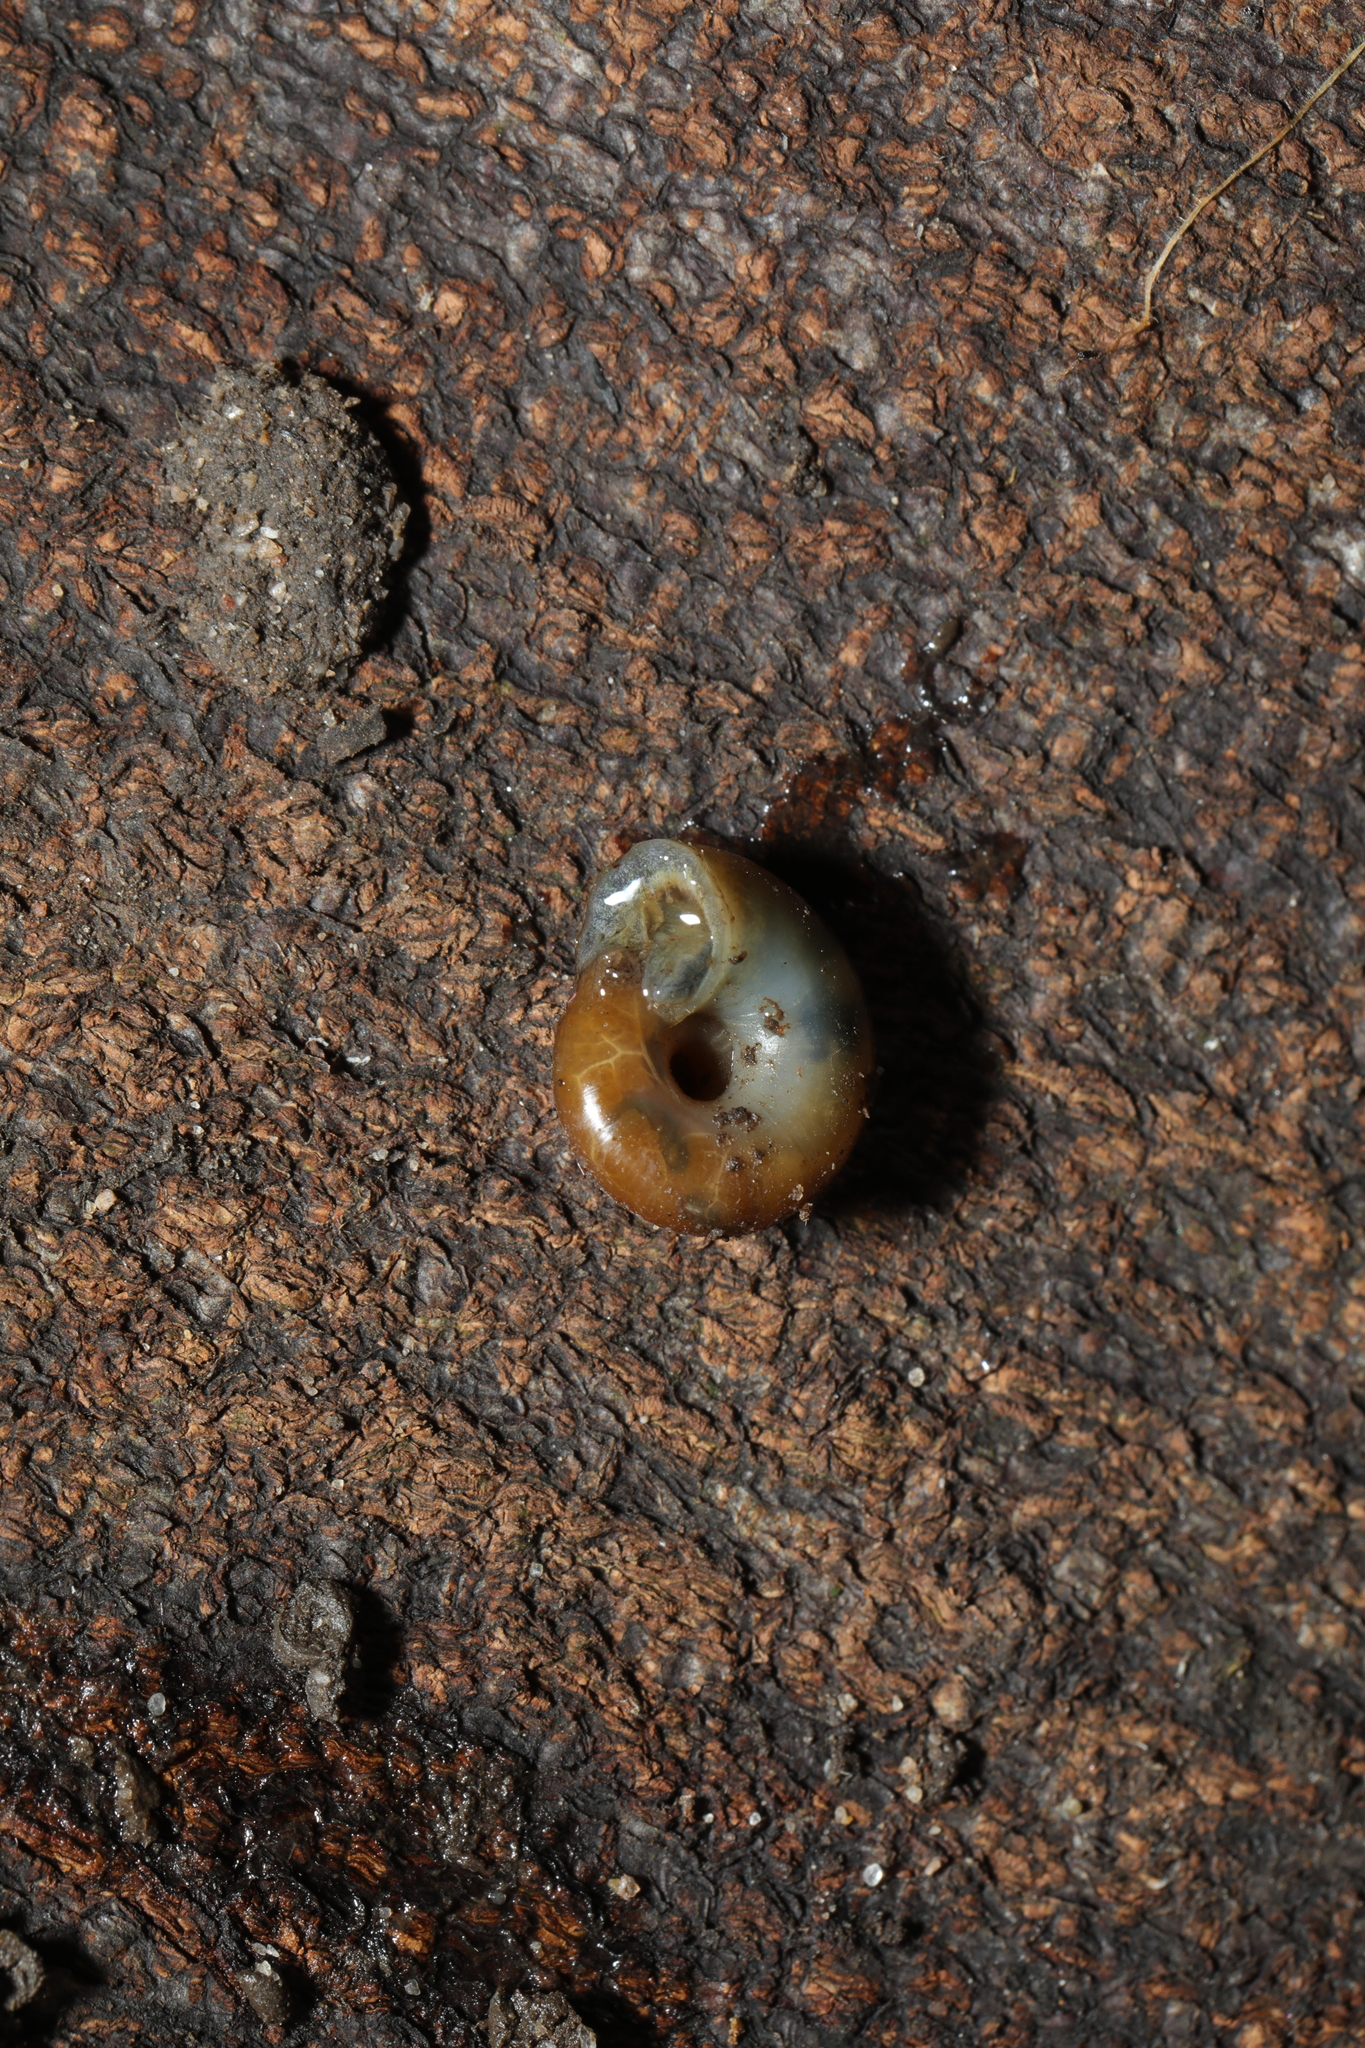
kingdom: Animalia
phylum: Mollusca
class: Gastropoda
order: Stylommatophora
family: Gastrodontidae
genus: Aegopinella
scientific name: Aegopinella nitidula
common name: Smooth glass snail
